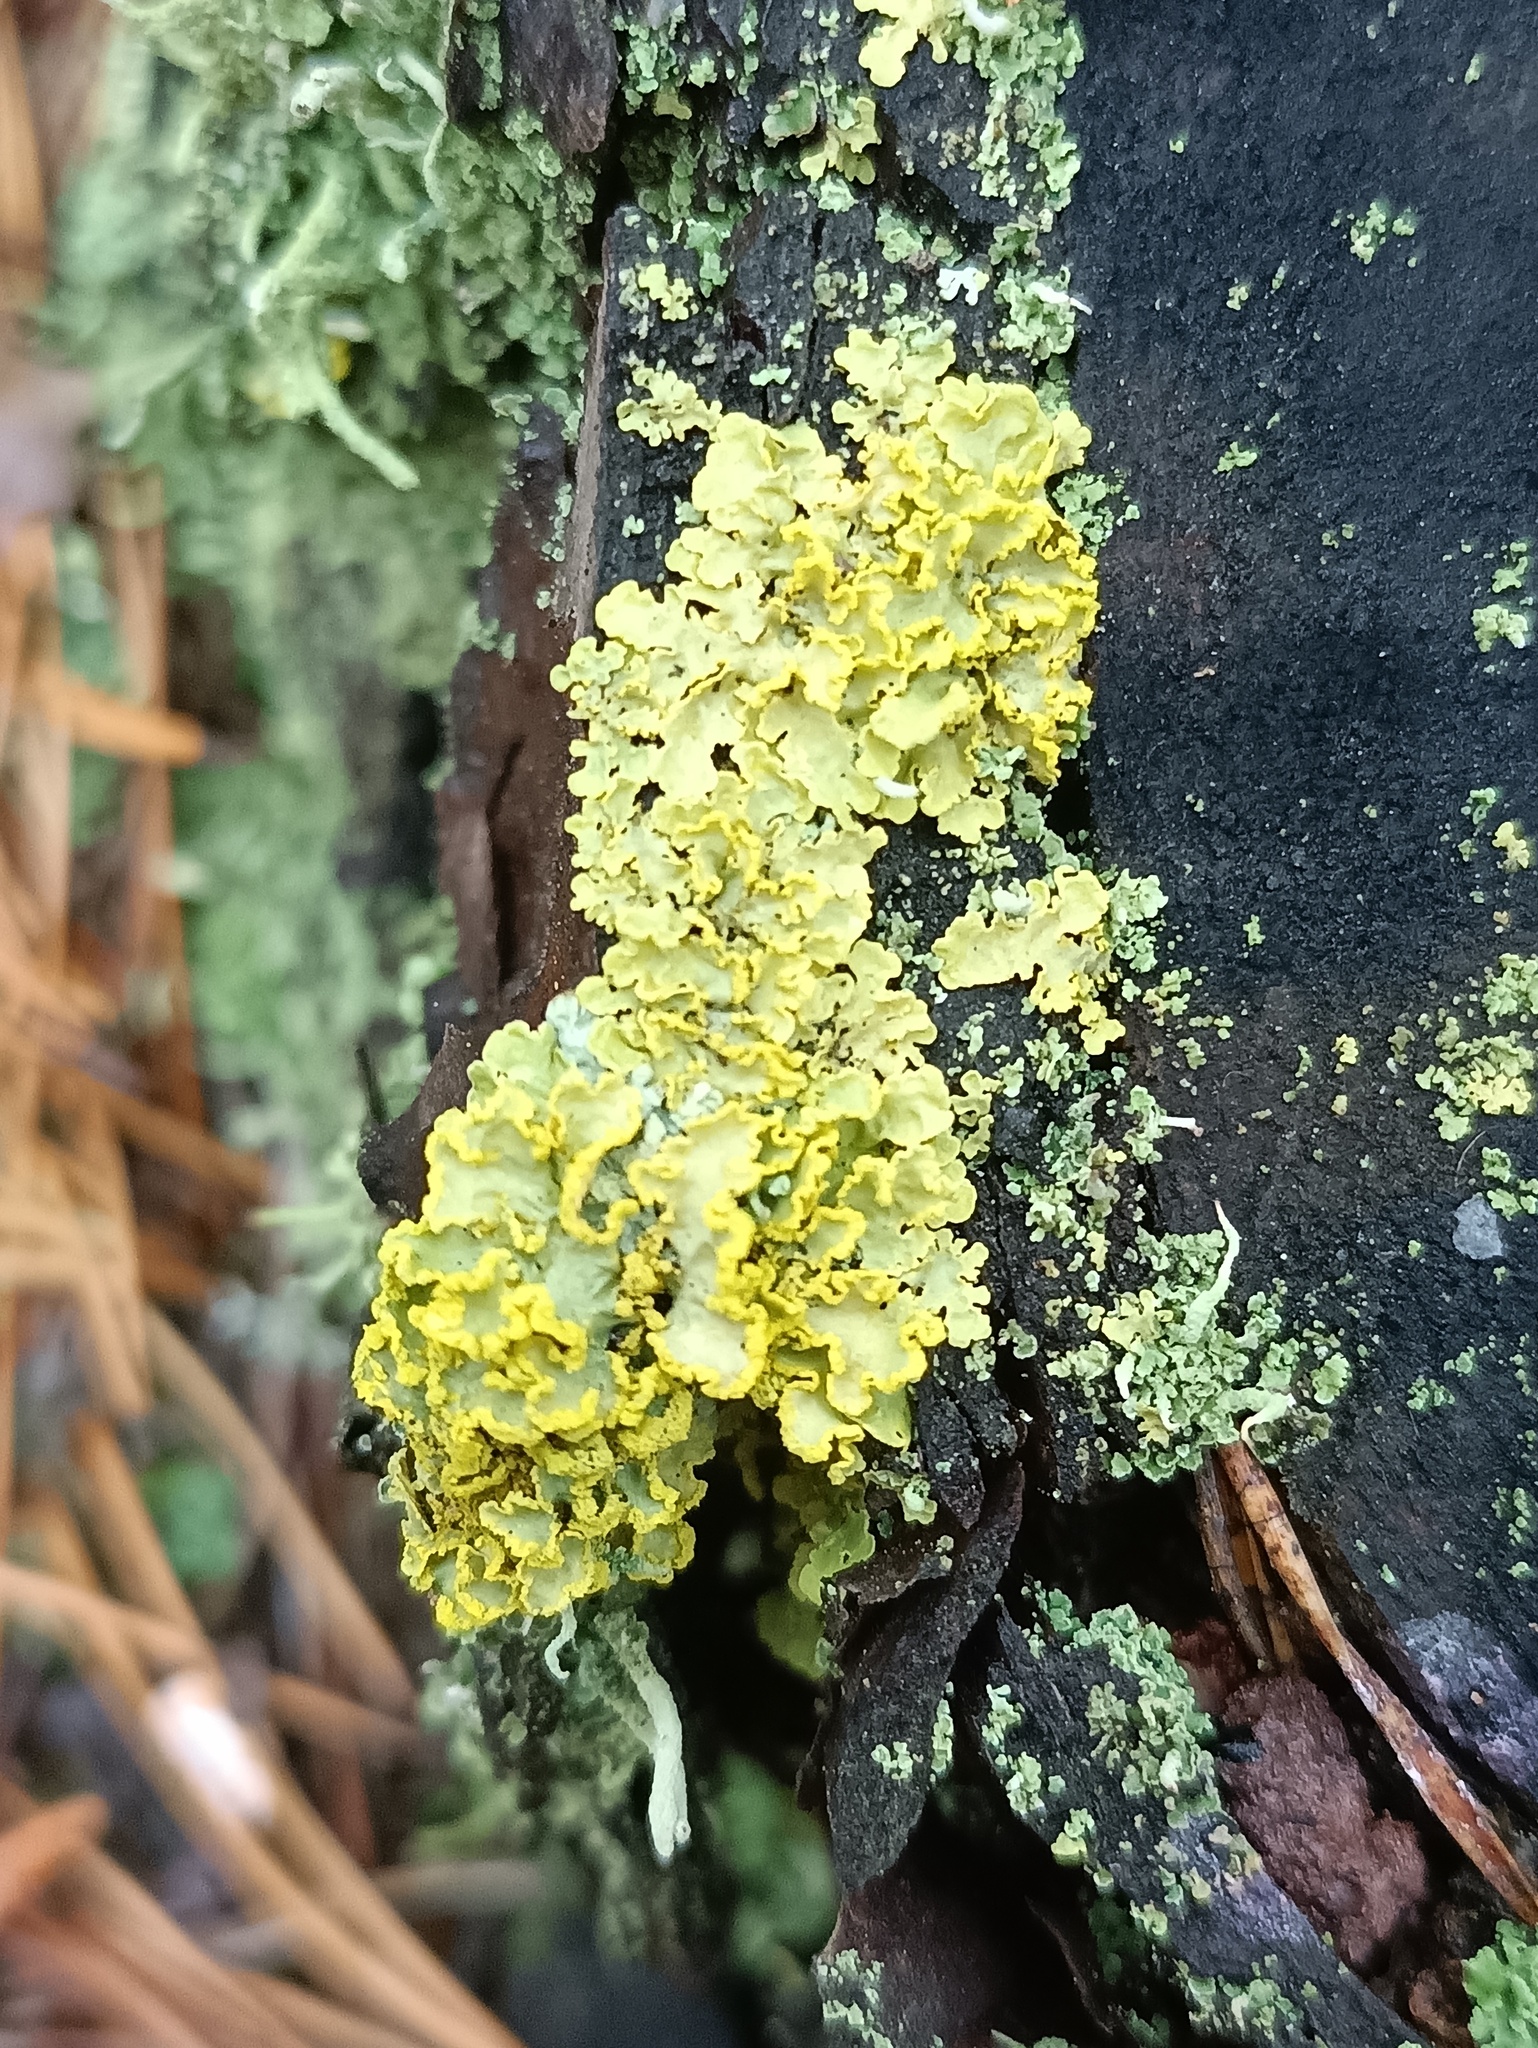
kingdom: Fungi
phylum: Ascomycota
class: Lecanoromycetes
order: Lecanorales
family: Parmeliaceae
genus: Vulpicida
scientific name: Vulpicida pinastri
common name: Powdered sunshine lichen
